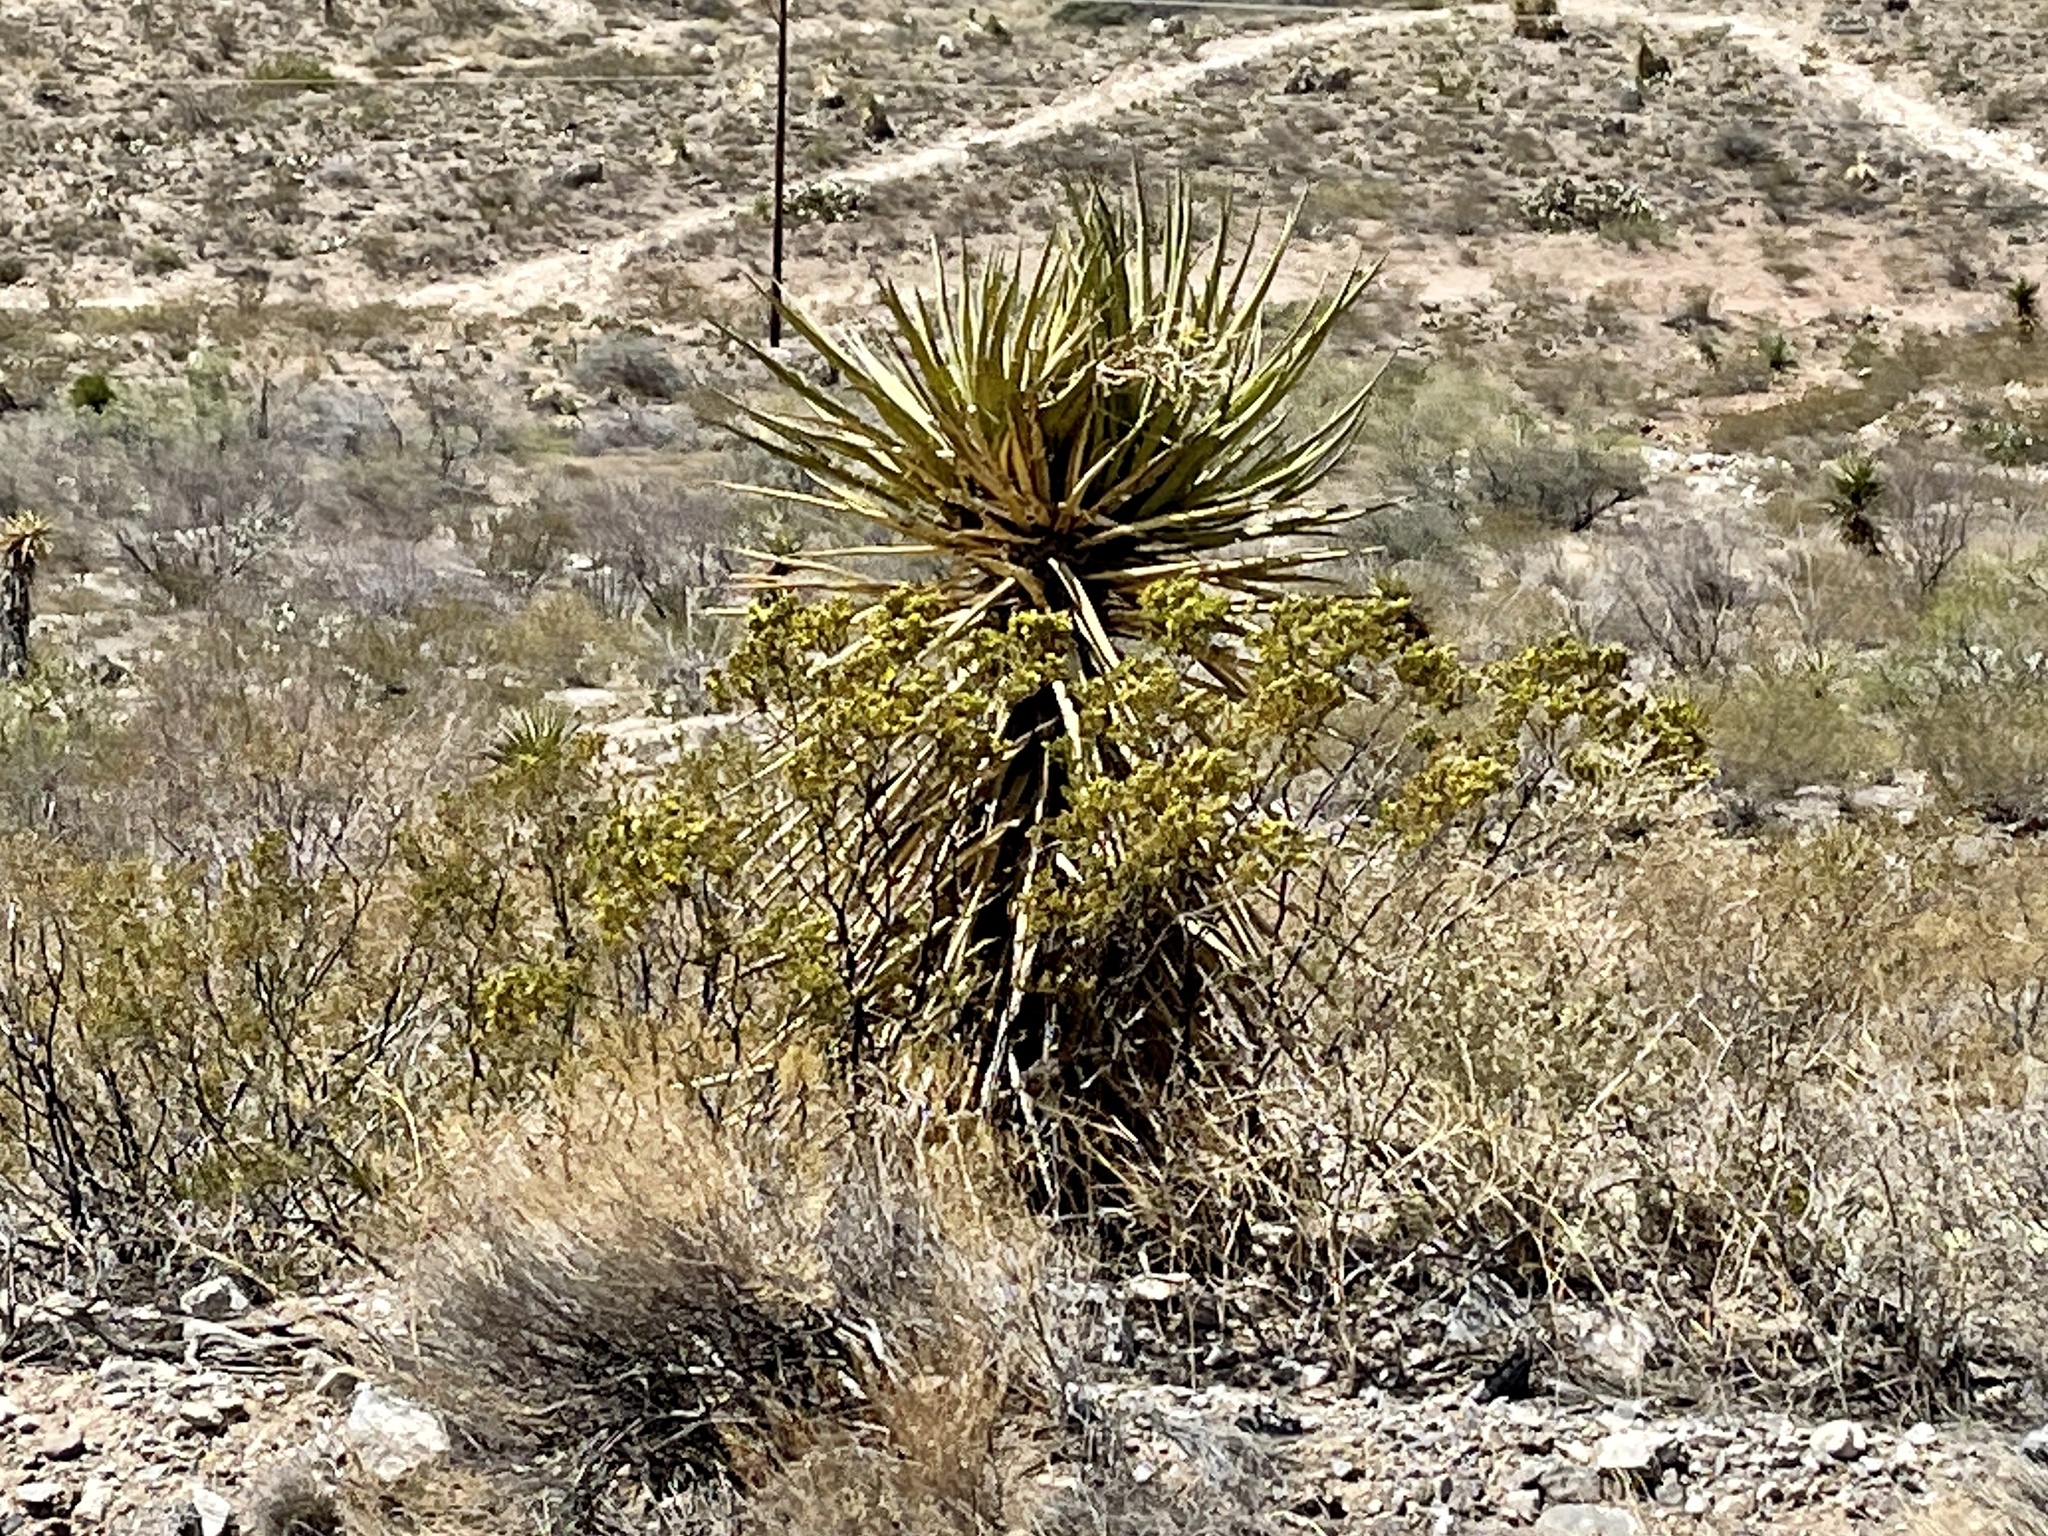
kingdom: Plantae
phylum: Tracheophyta
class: Liliopsida
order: Asparagales
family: Asparagaceae
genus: Yucca
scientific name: Yucca treculiana
